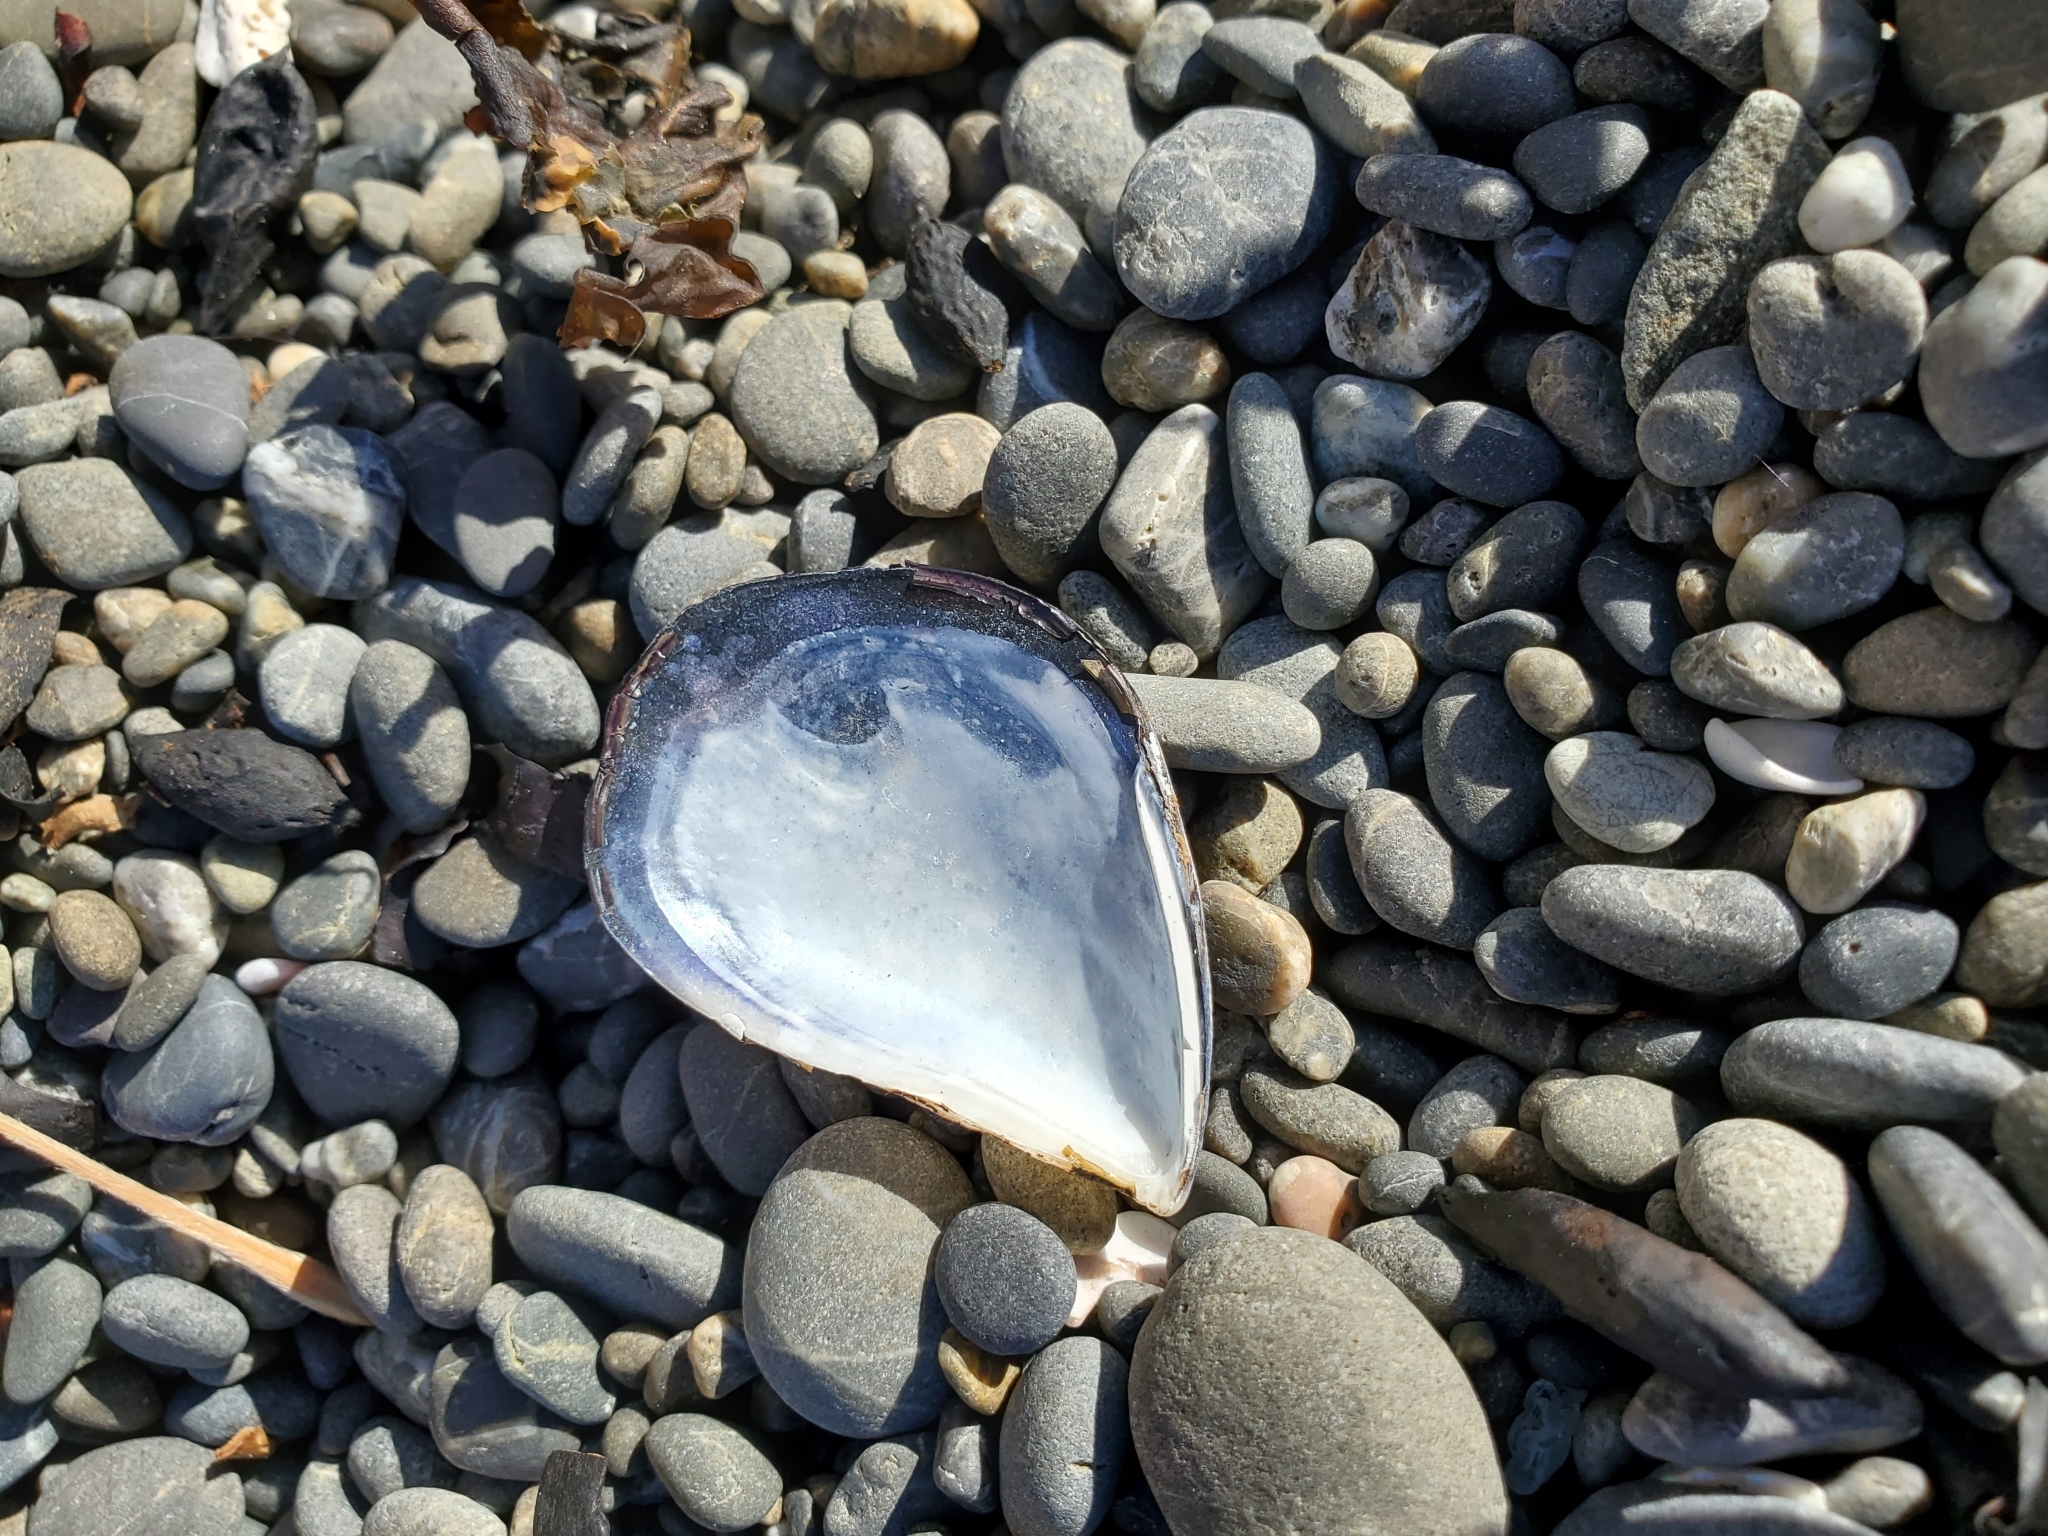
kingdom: Animalia
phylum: Mollusca
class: Bivalvia
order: Mytilida
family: Mytilidae
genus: Mytilus
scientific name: Mytilus planulatus
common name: Australian mussel
